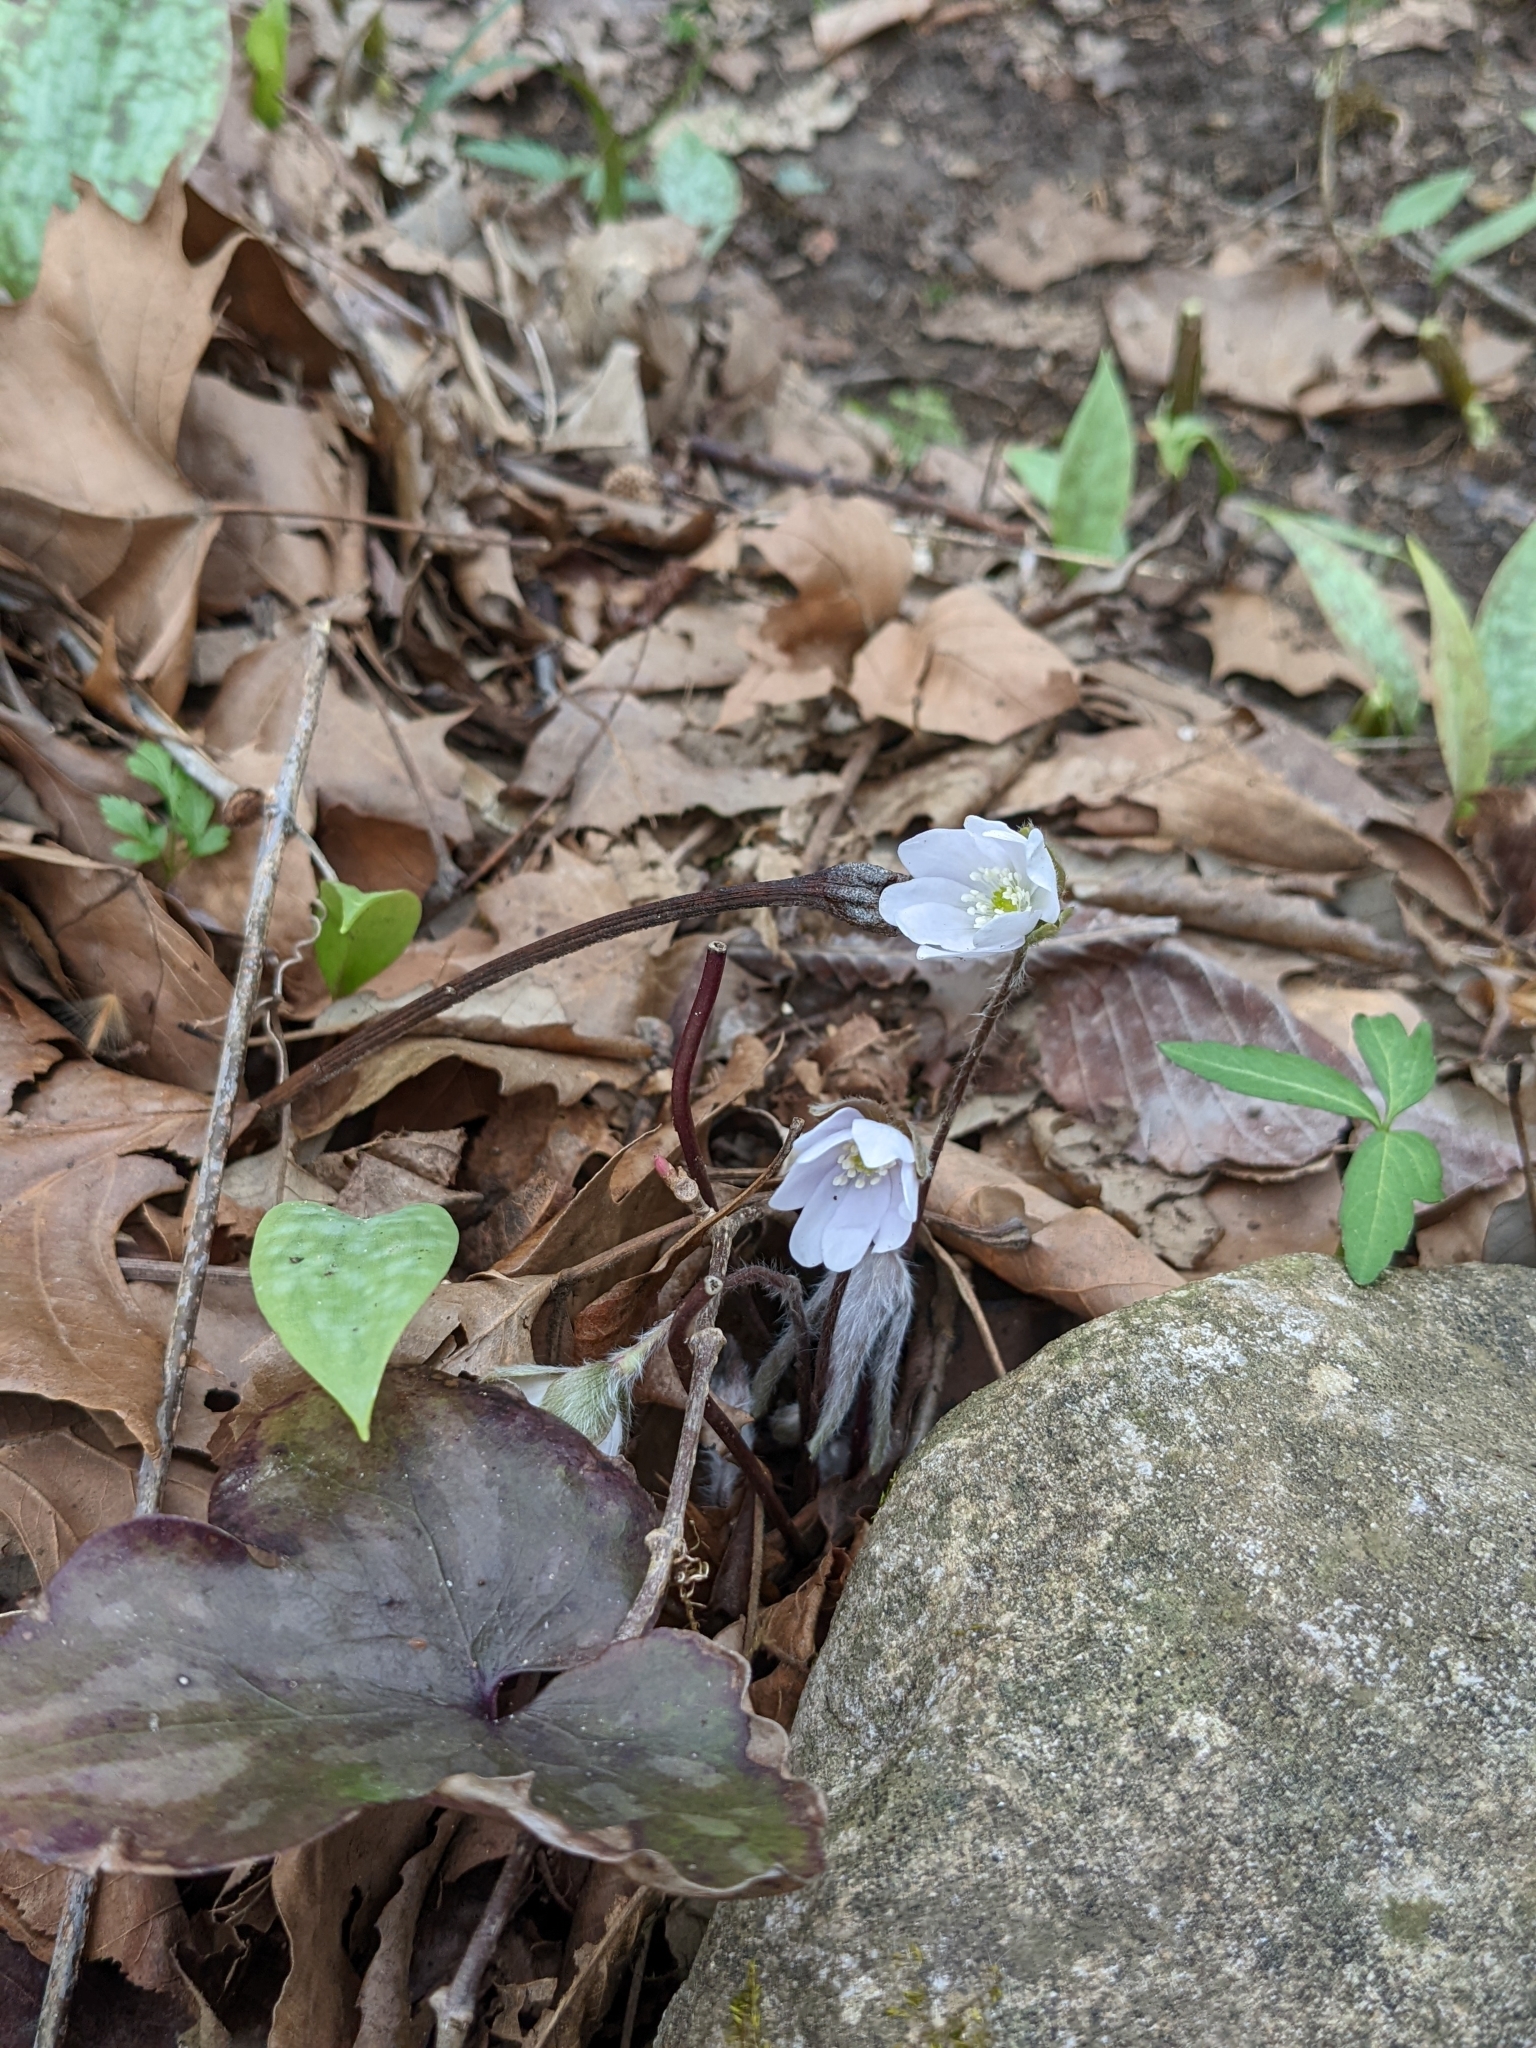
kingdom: Plantae
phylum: Tracheophyta
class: Magnoliopsida
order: Ranunculales
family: Ranunculaceae
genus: Hepatica
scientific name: Hepatica acutiloba
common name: Sharp-lobed hepatica
